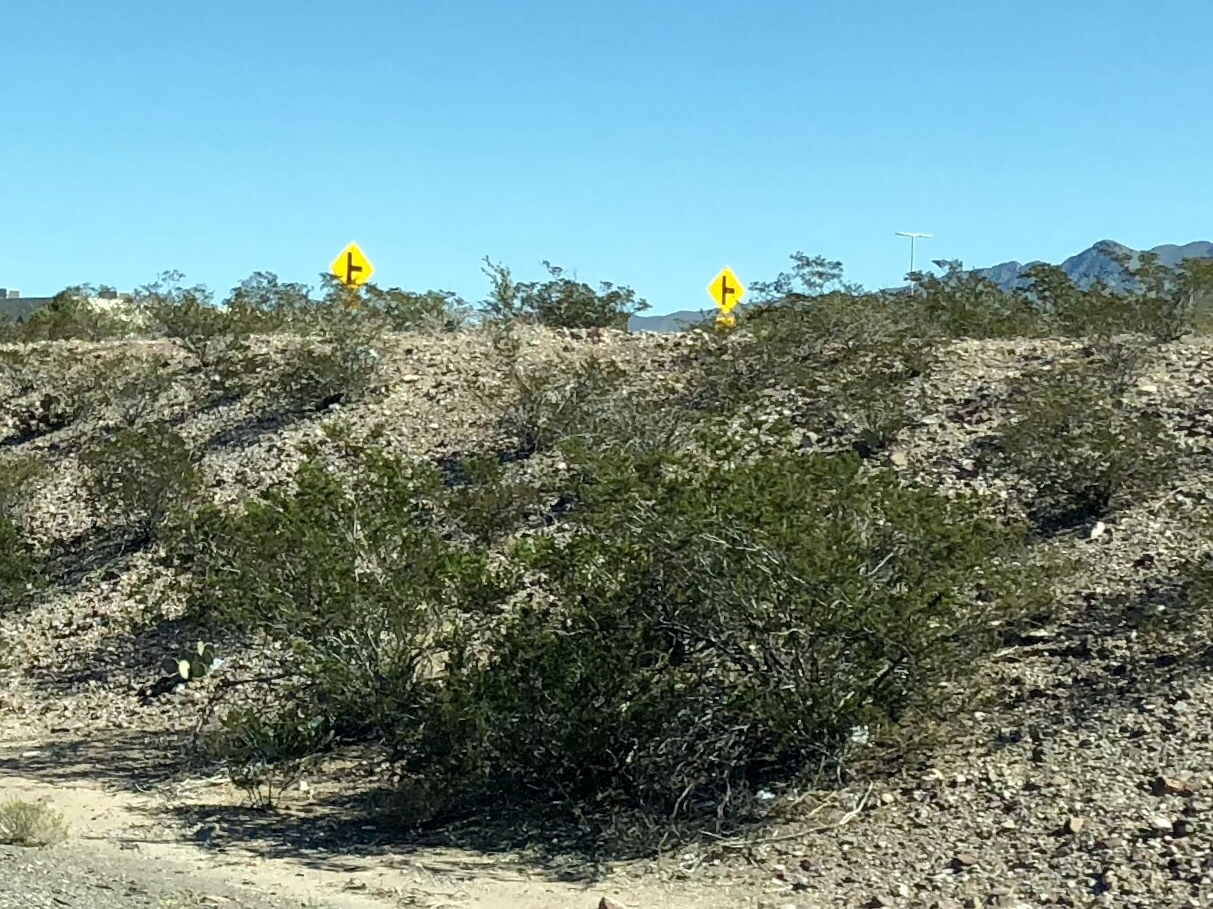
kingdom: Plantae
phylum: Tracheophyta
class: Magnoliopsida
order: Zygophyllales
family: Zygophyllaceae
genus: Larrea
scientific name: Larrea tridentata
